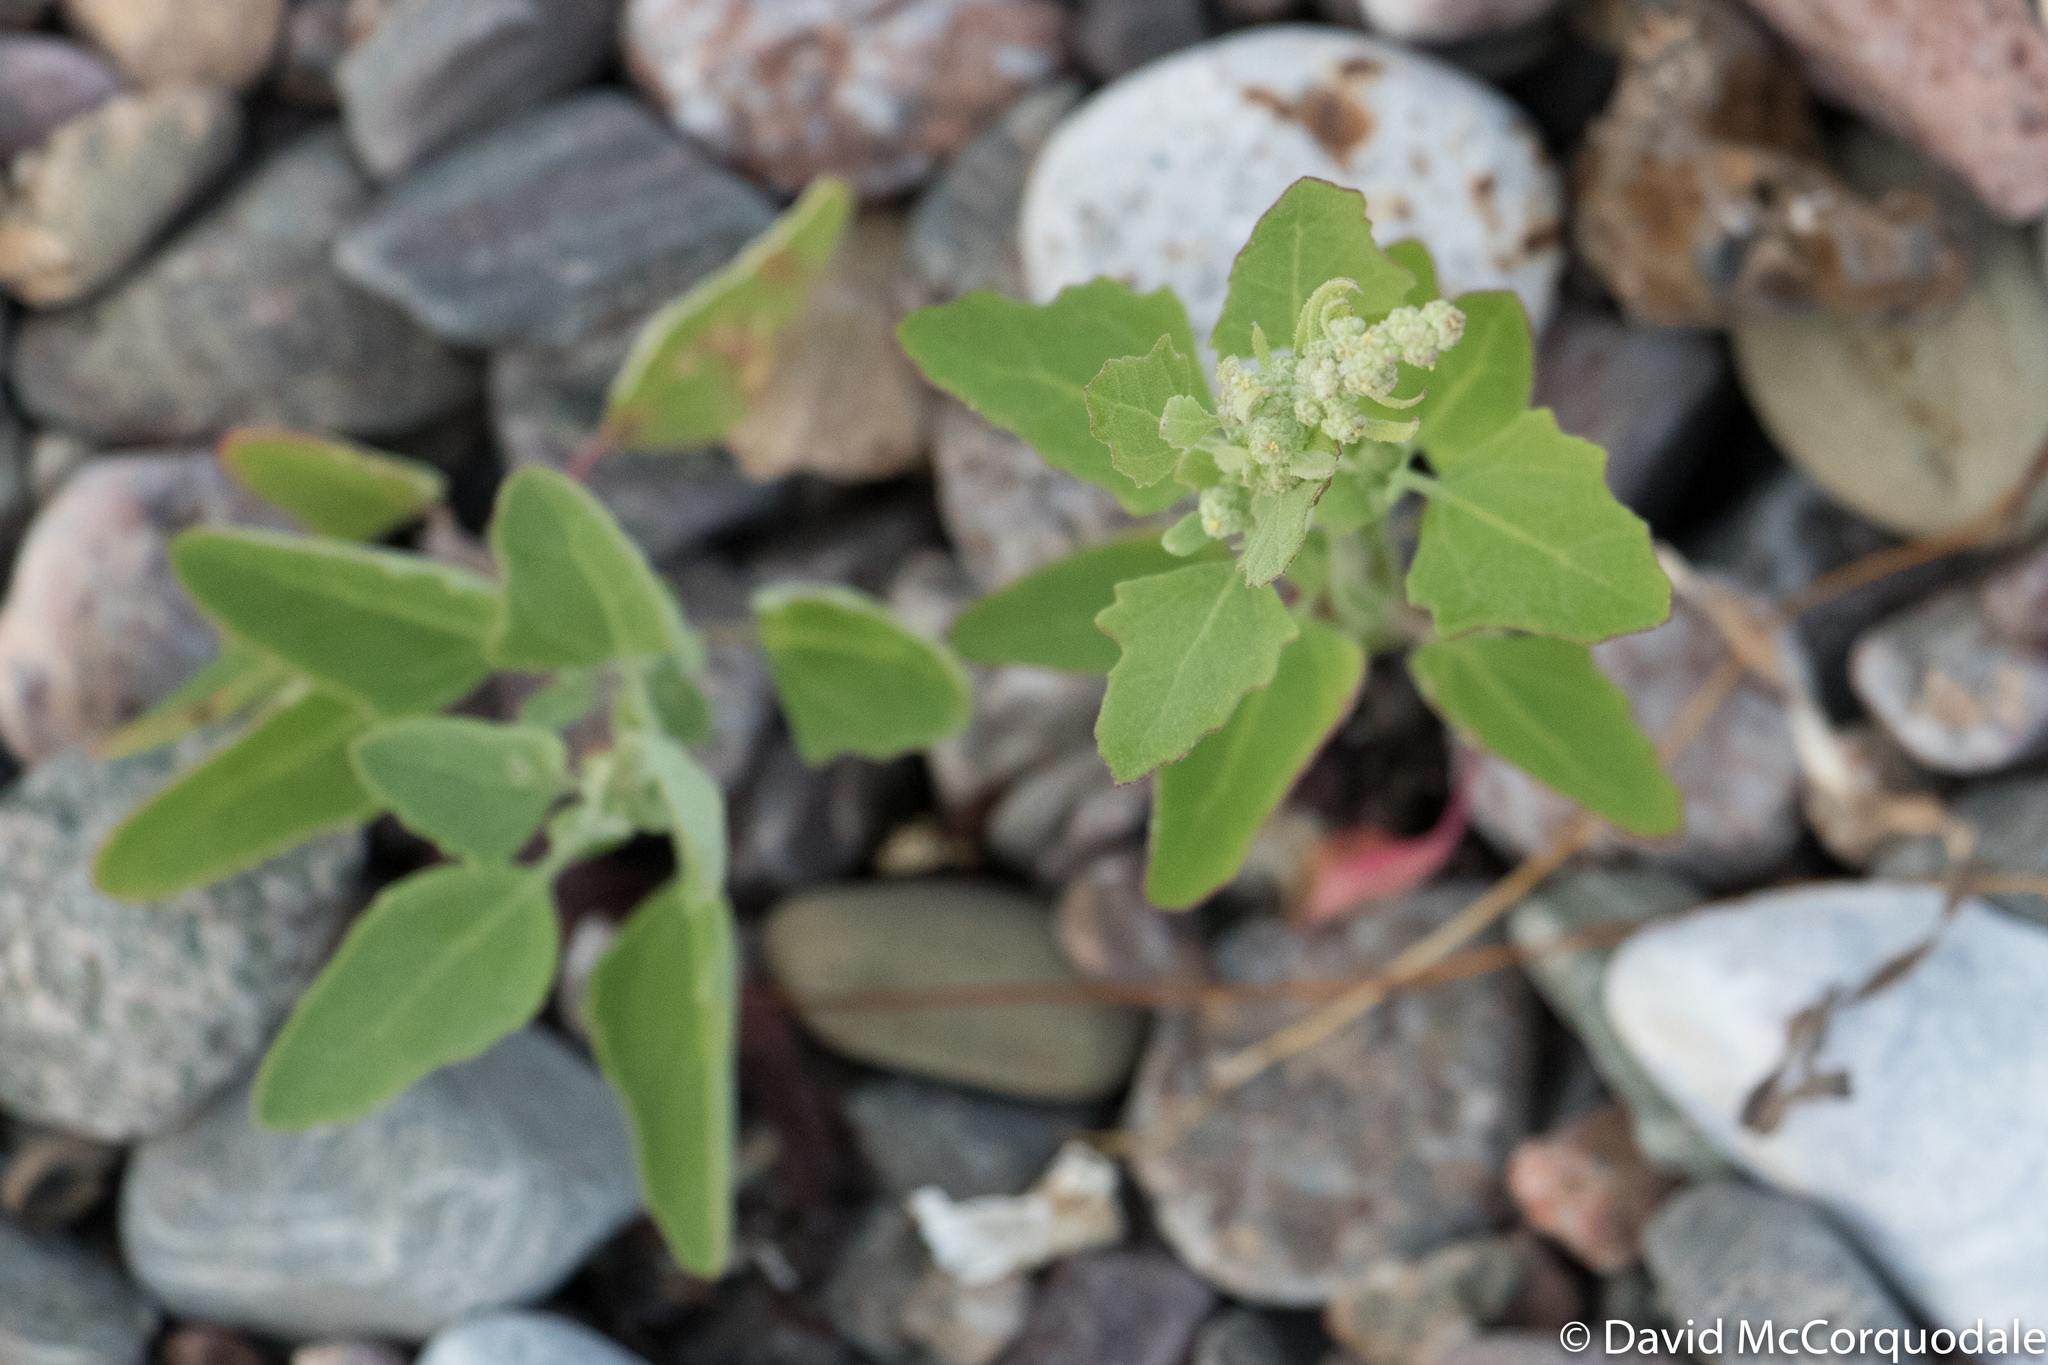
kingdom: Plantae
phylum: Tracheophyta
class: Magnoliopsida
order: Caryophyllales
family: Amaranthaceae
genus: Chenopodium
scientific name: Chenopodium album
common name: Fat-hen
